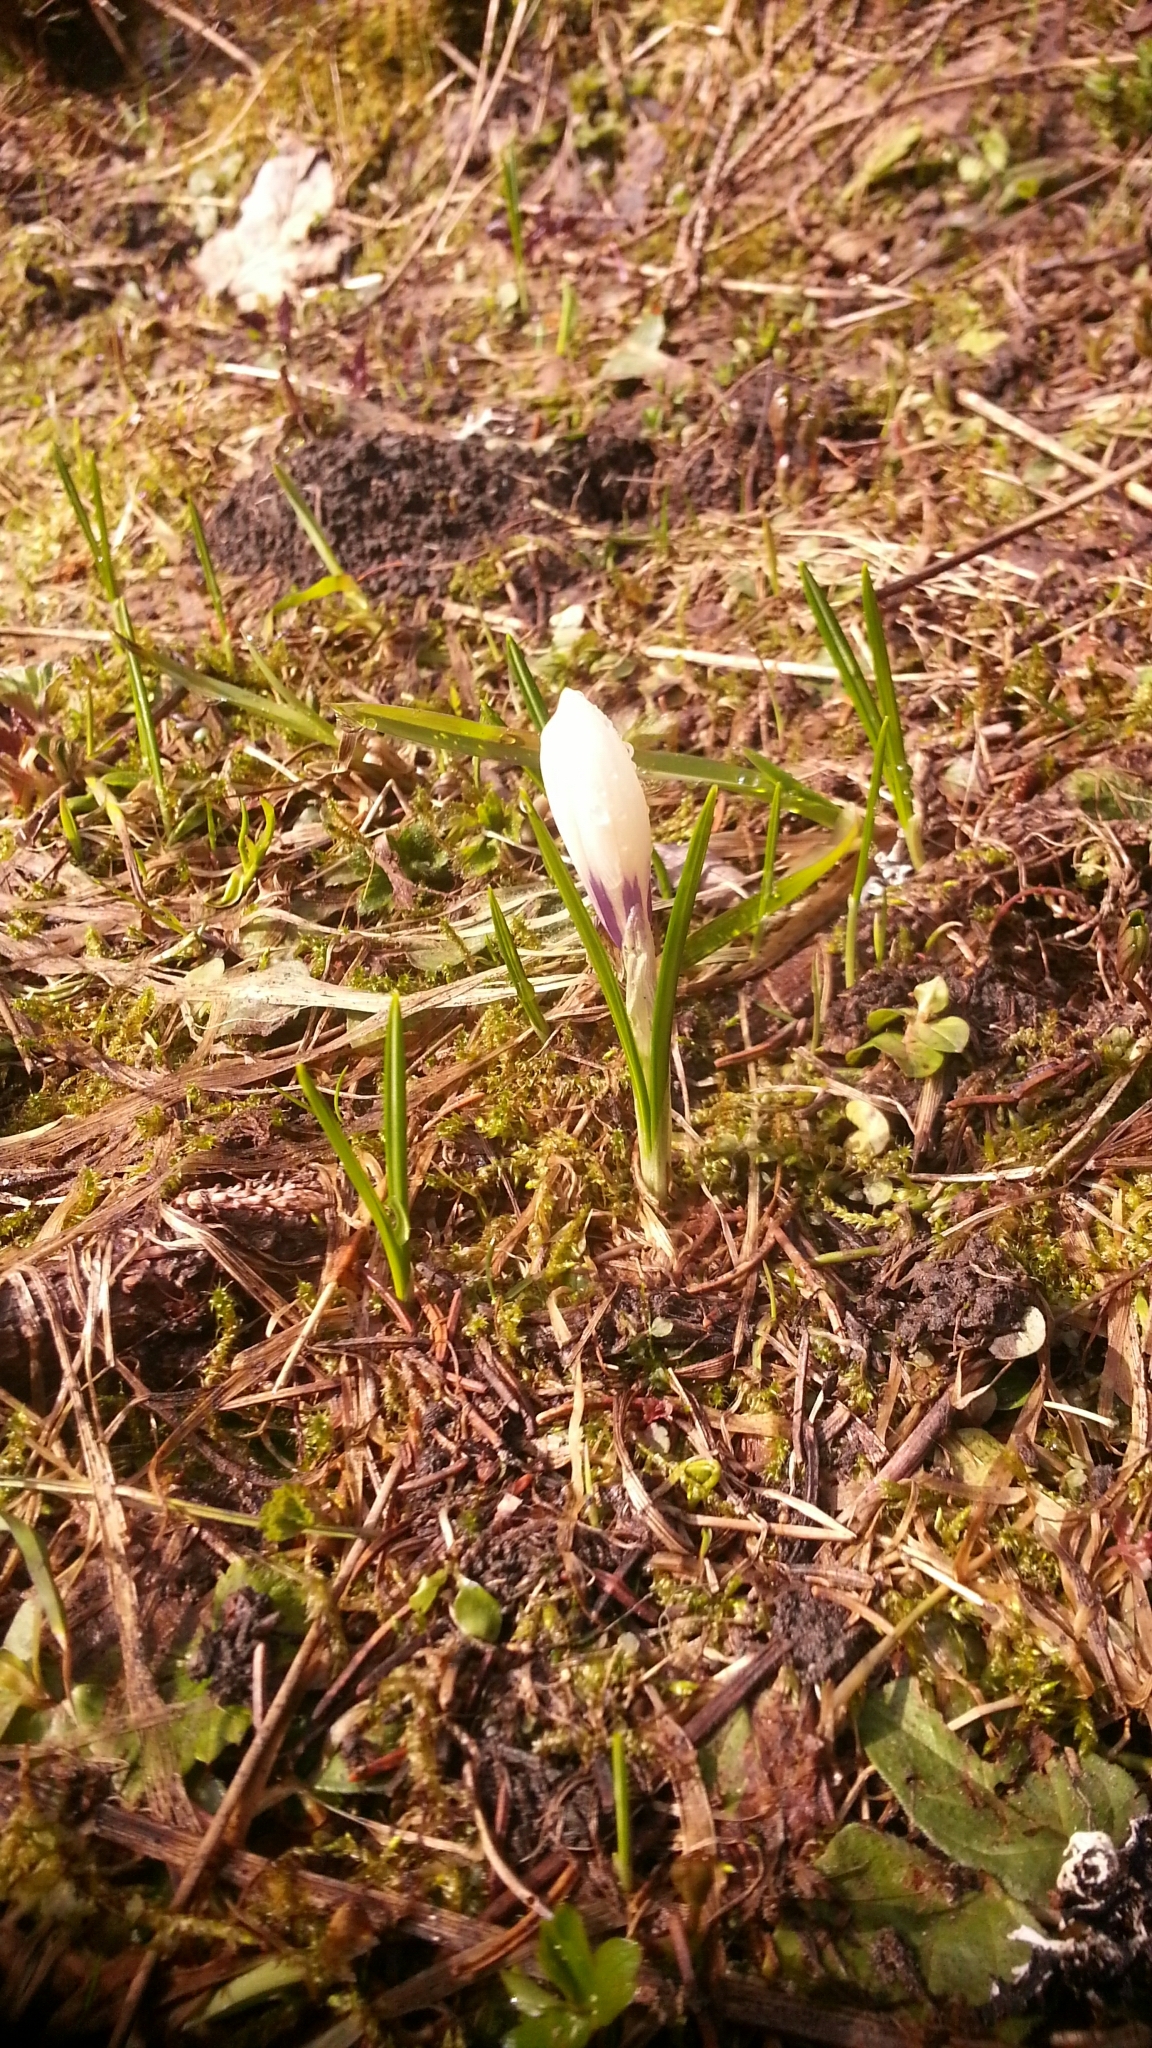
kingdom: Plantae
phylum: Tracheophyta
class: Liliopsida
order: Asparagales
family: Iridaceae
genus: Crocus
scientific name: Crocus vernus
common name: Spring crocus
